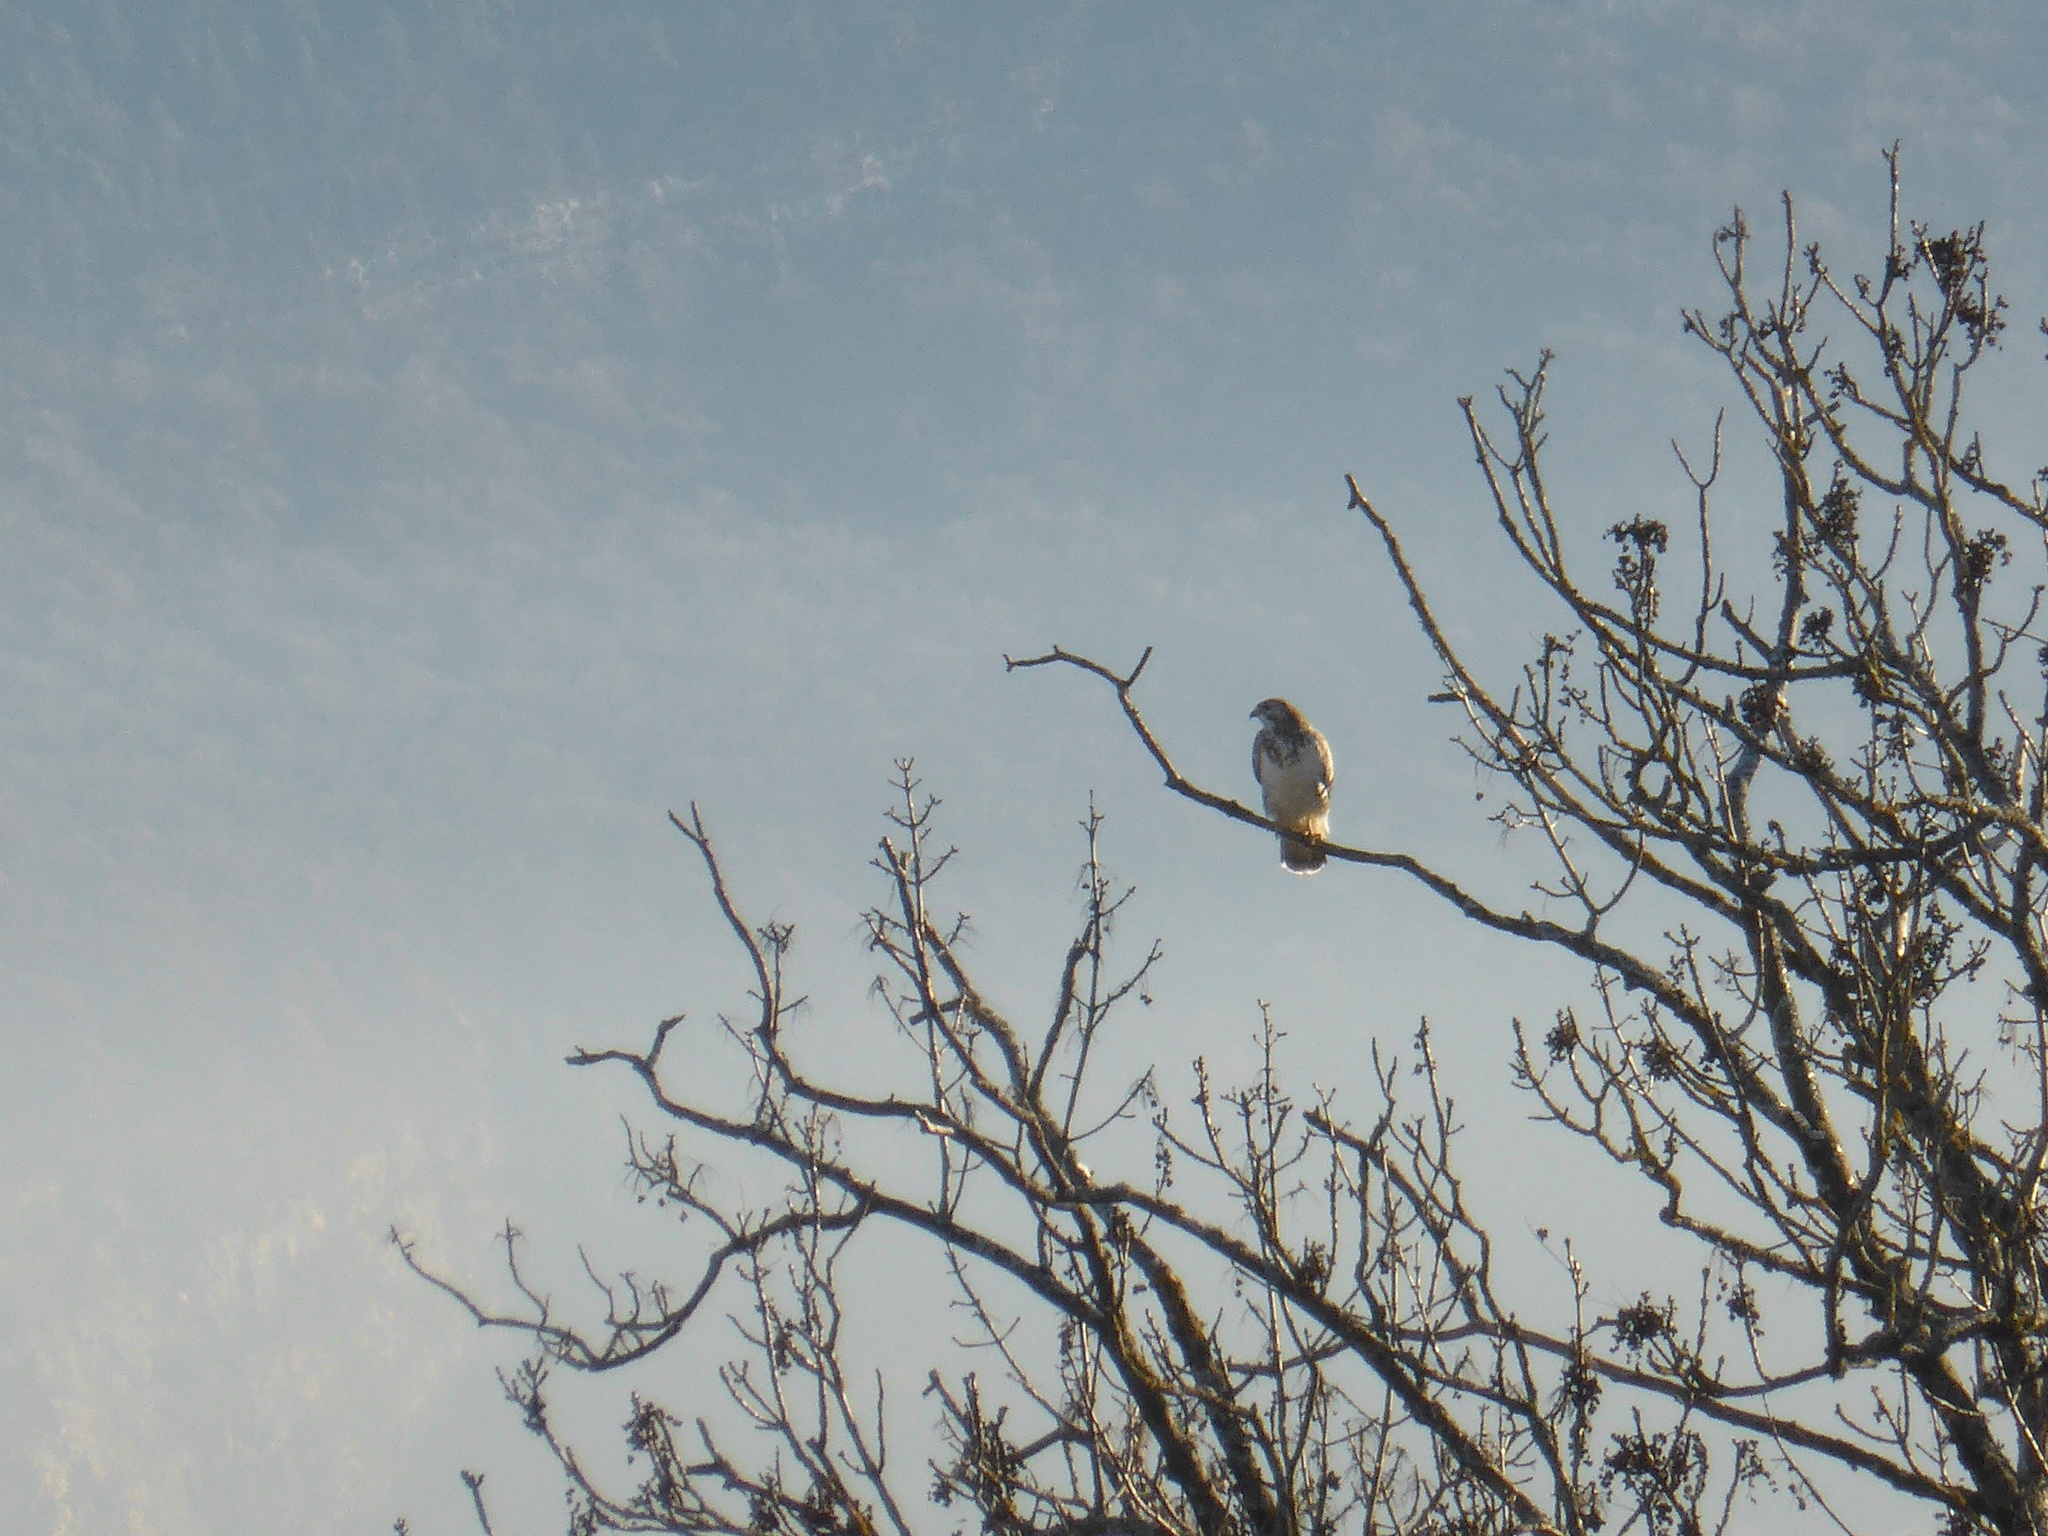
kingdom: Animalia
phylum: Chordata
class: Aves
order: Accipitriformes
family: Accipitridae
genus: Buteo
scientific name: Buteo buteo
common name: Common buzzard
